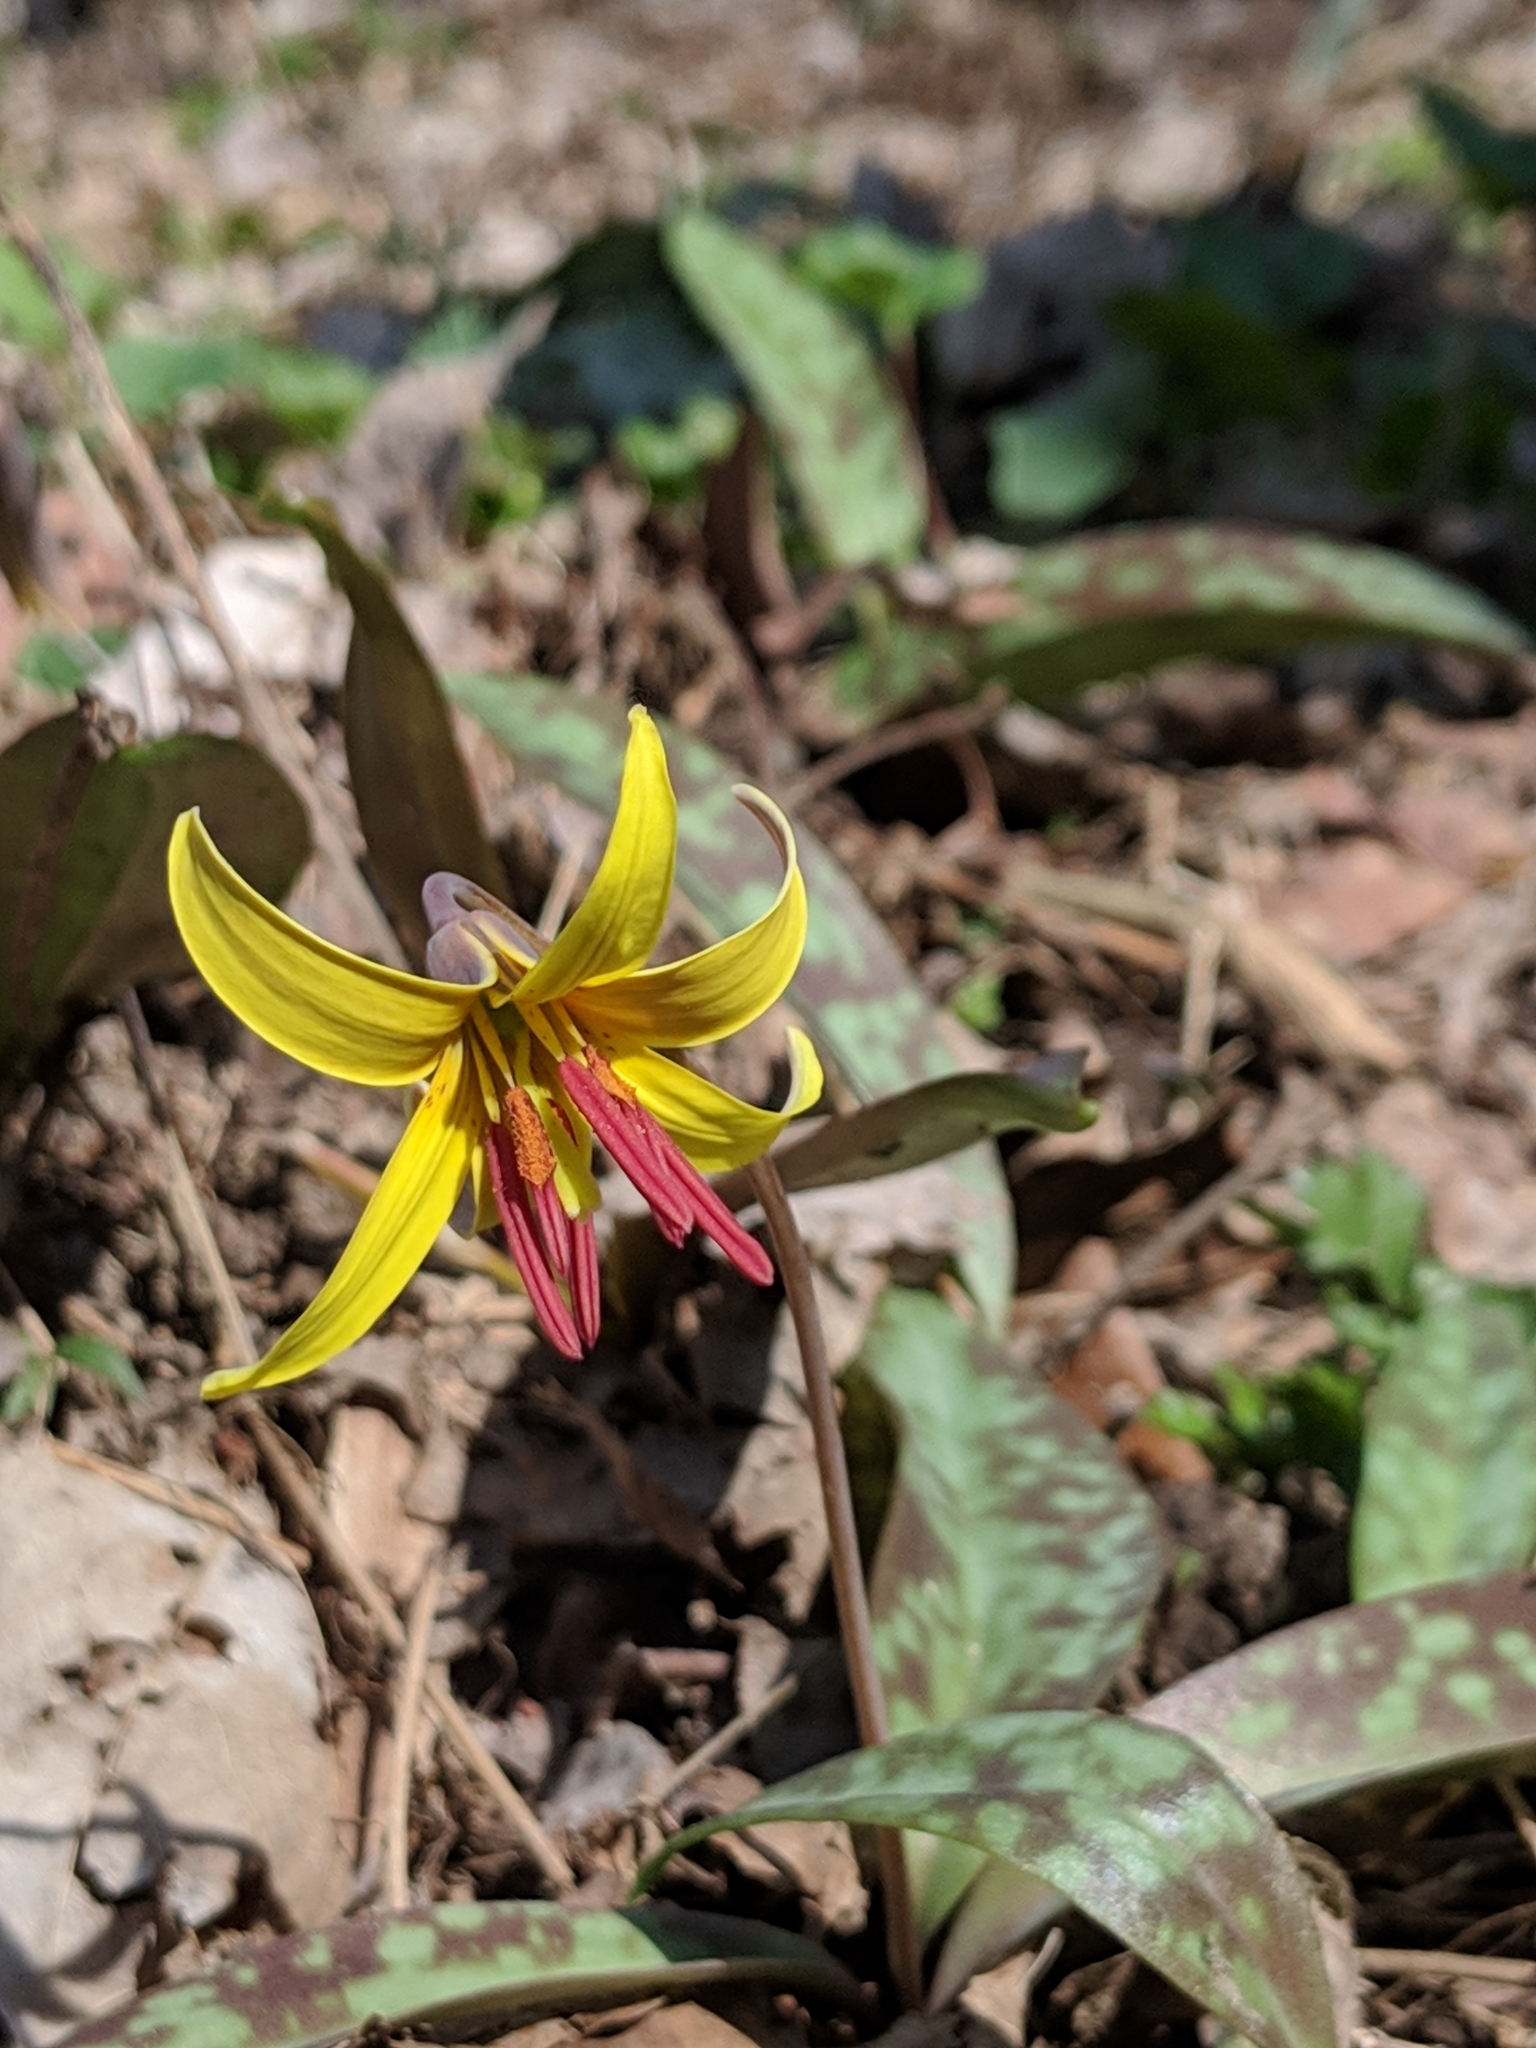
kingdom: Plantae
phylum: Tracheophyta
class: Liliopsida
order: Liliales
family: Liliaceae
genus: Erythronium
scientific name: Erythronium americanum
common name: Yellow adder's-tongue
